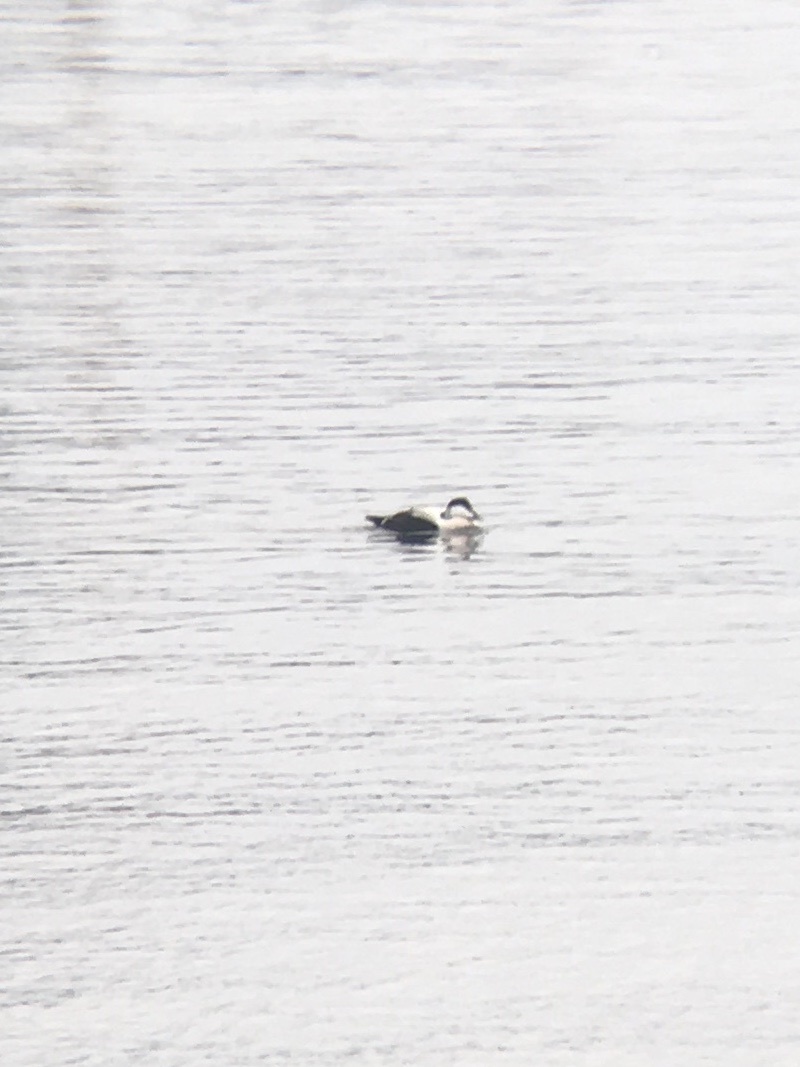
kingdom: Animalia
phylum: Chordata
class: Aves
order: Anseriformes
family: Anatidae
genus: Somateria
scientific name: Somateria mollissima
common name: Common eider
